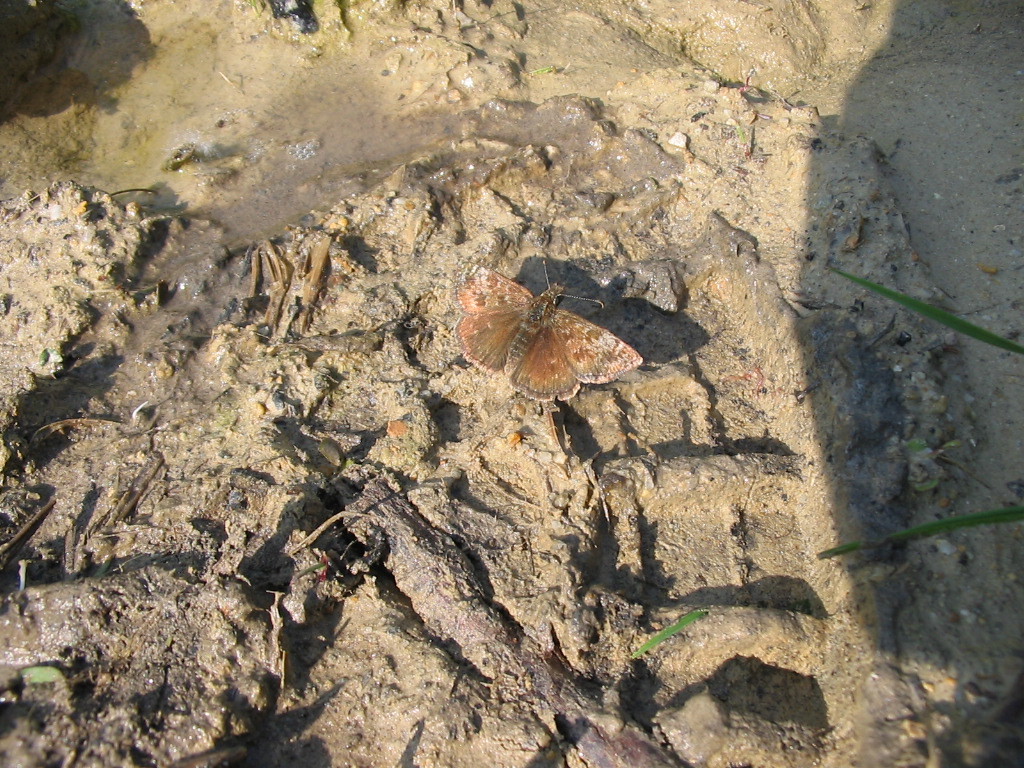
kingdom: Animalia
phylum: Arthropoda
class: Insecta
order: Lepidoptera
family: Hesperiidae
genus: Erynnis
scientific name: Erynnis tages
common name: Dingy skipper
